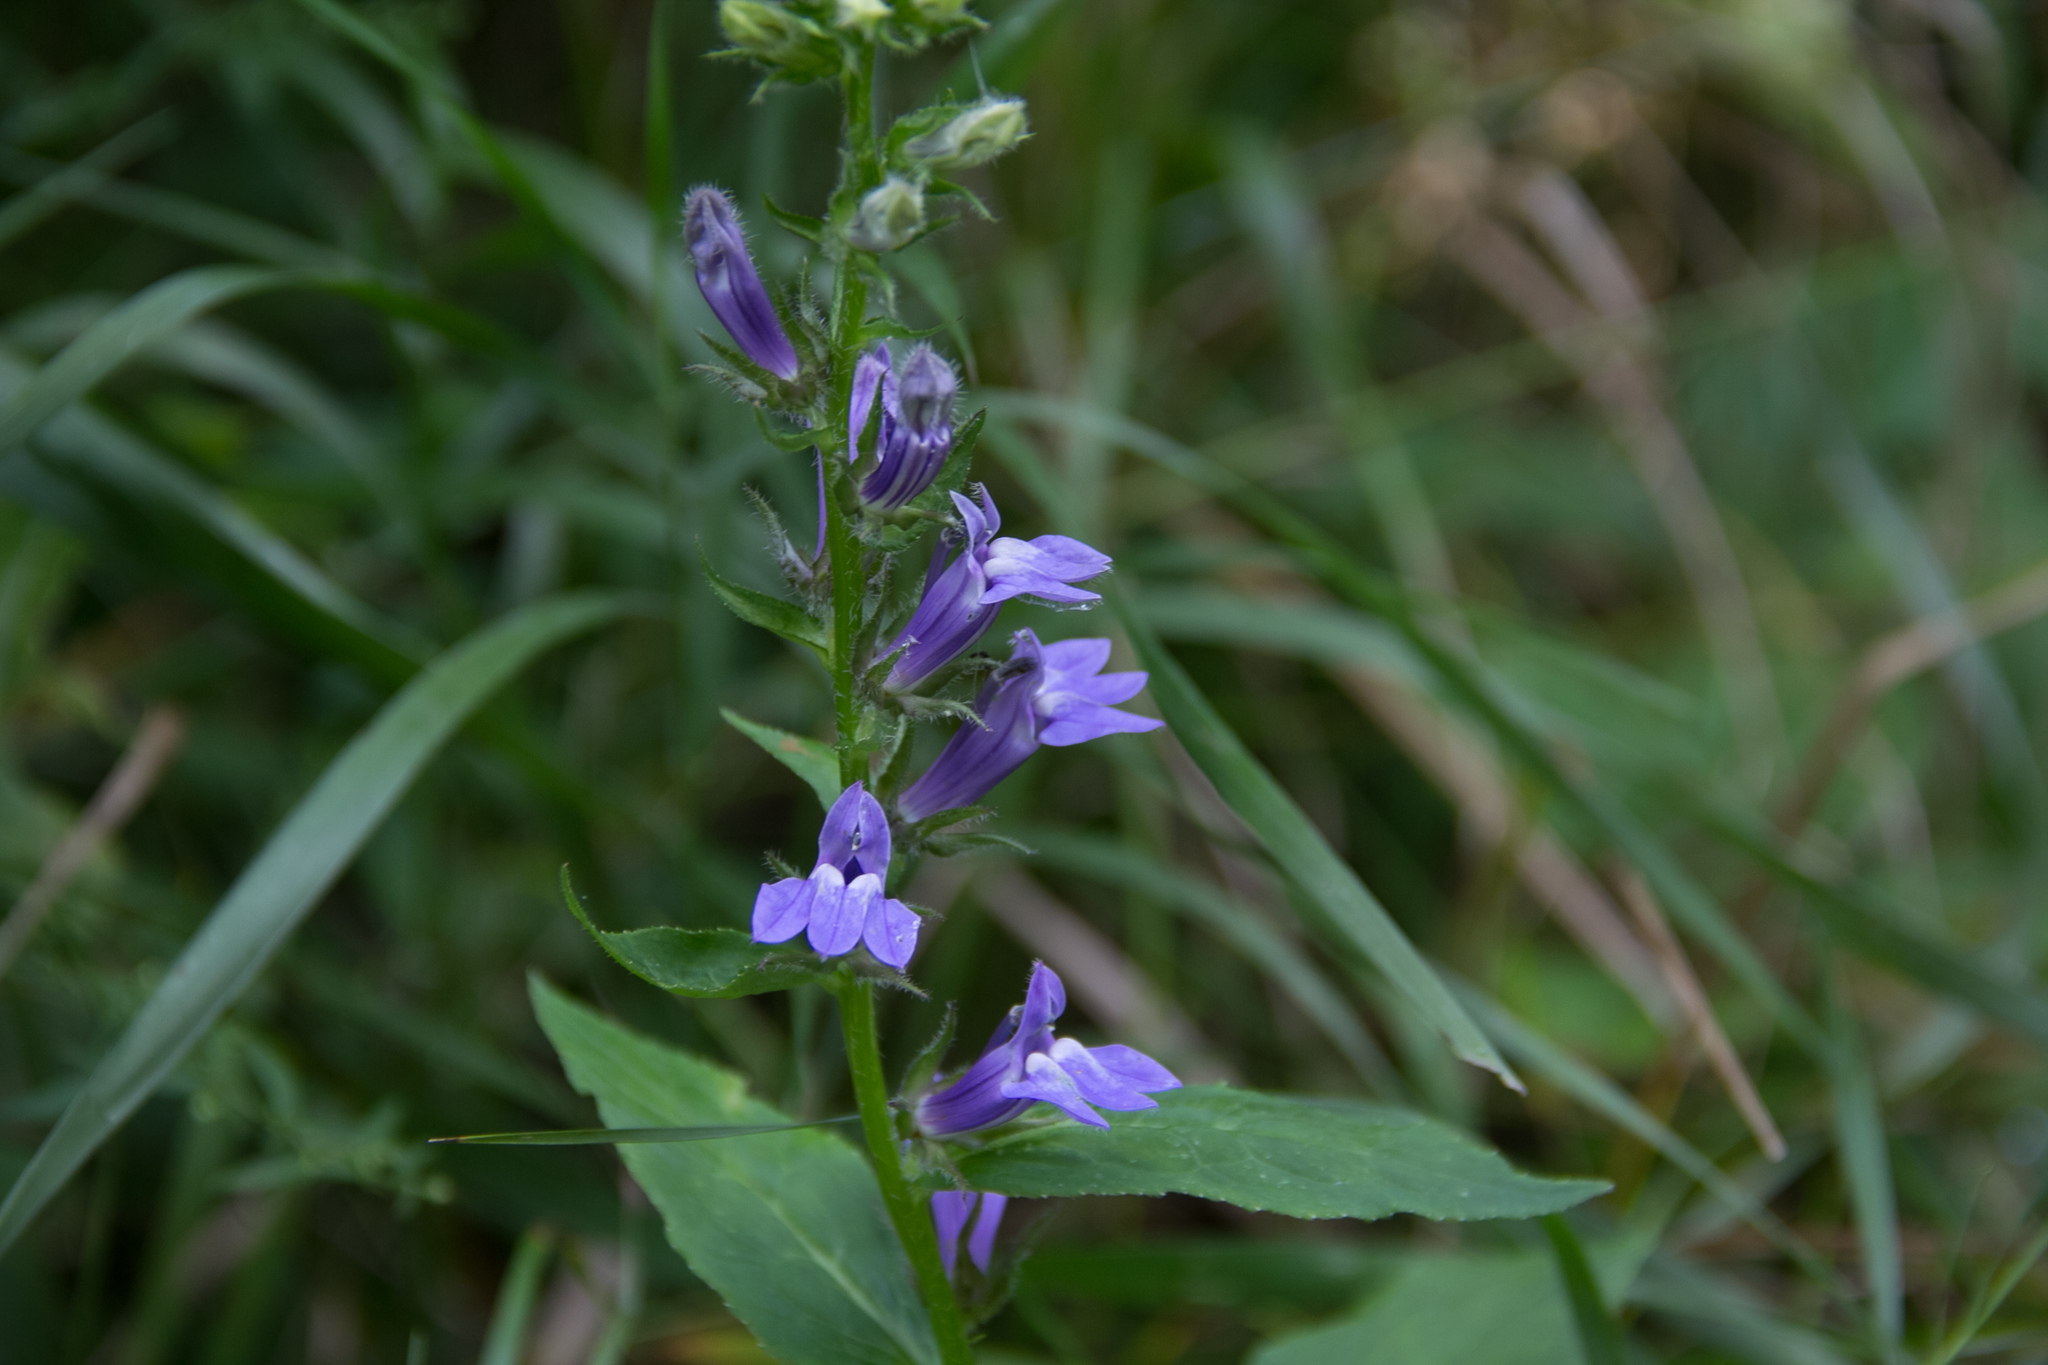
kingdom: Plantae
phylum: Tracheophyta
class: Magnoliopsida
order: Asterales
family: Campanulaceae
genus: Lobelia
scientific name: Lobelia siphilitica
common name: Great lobelia
